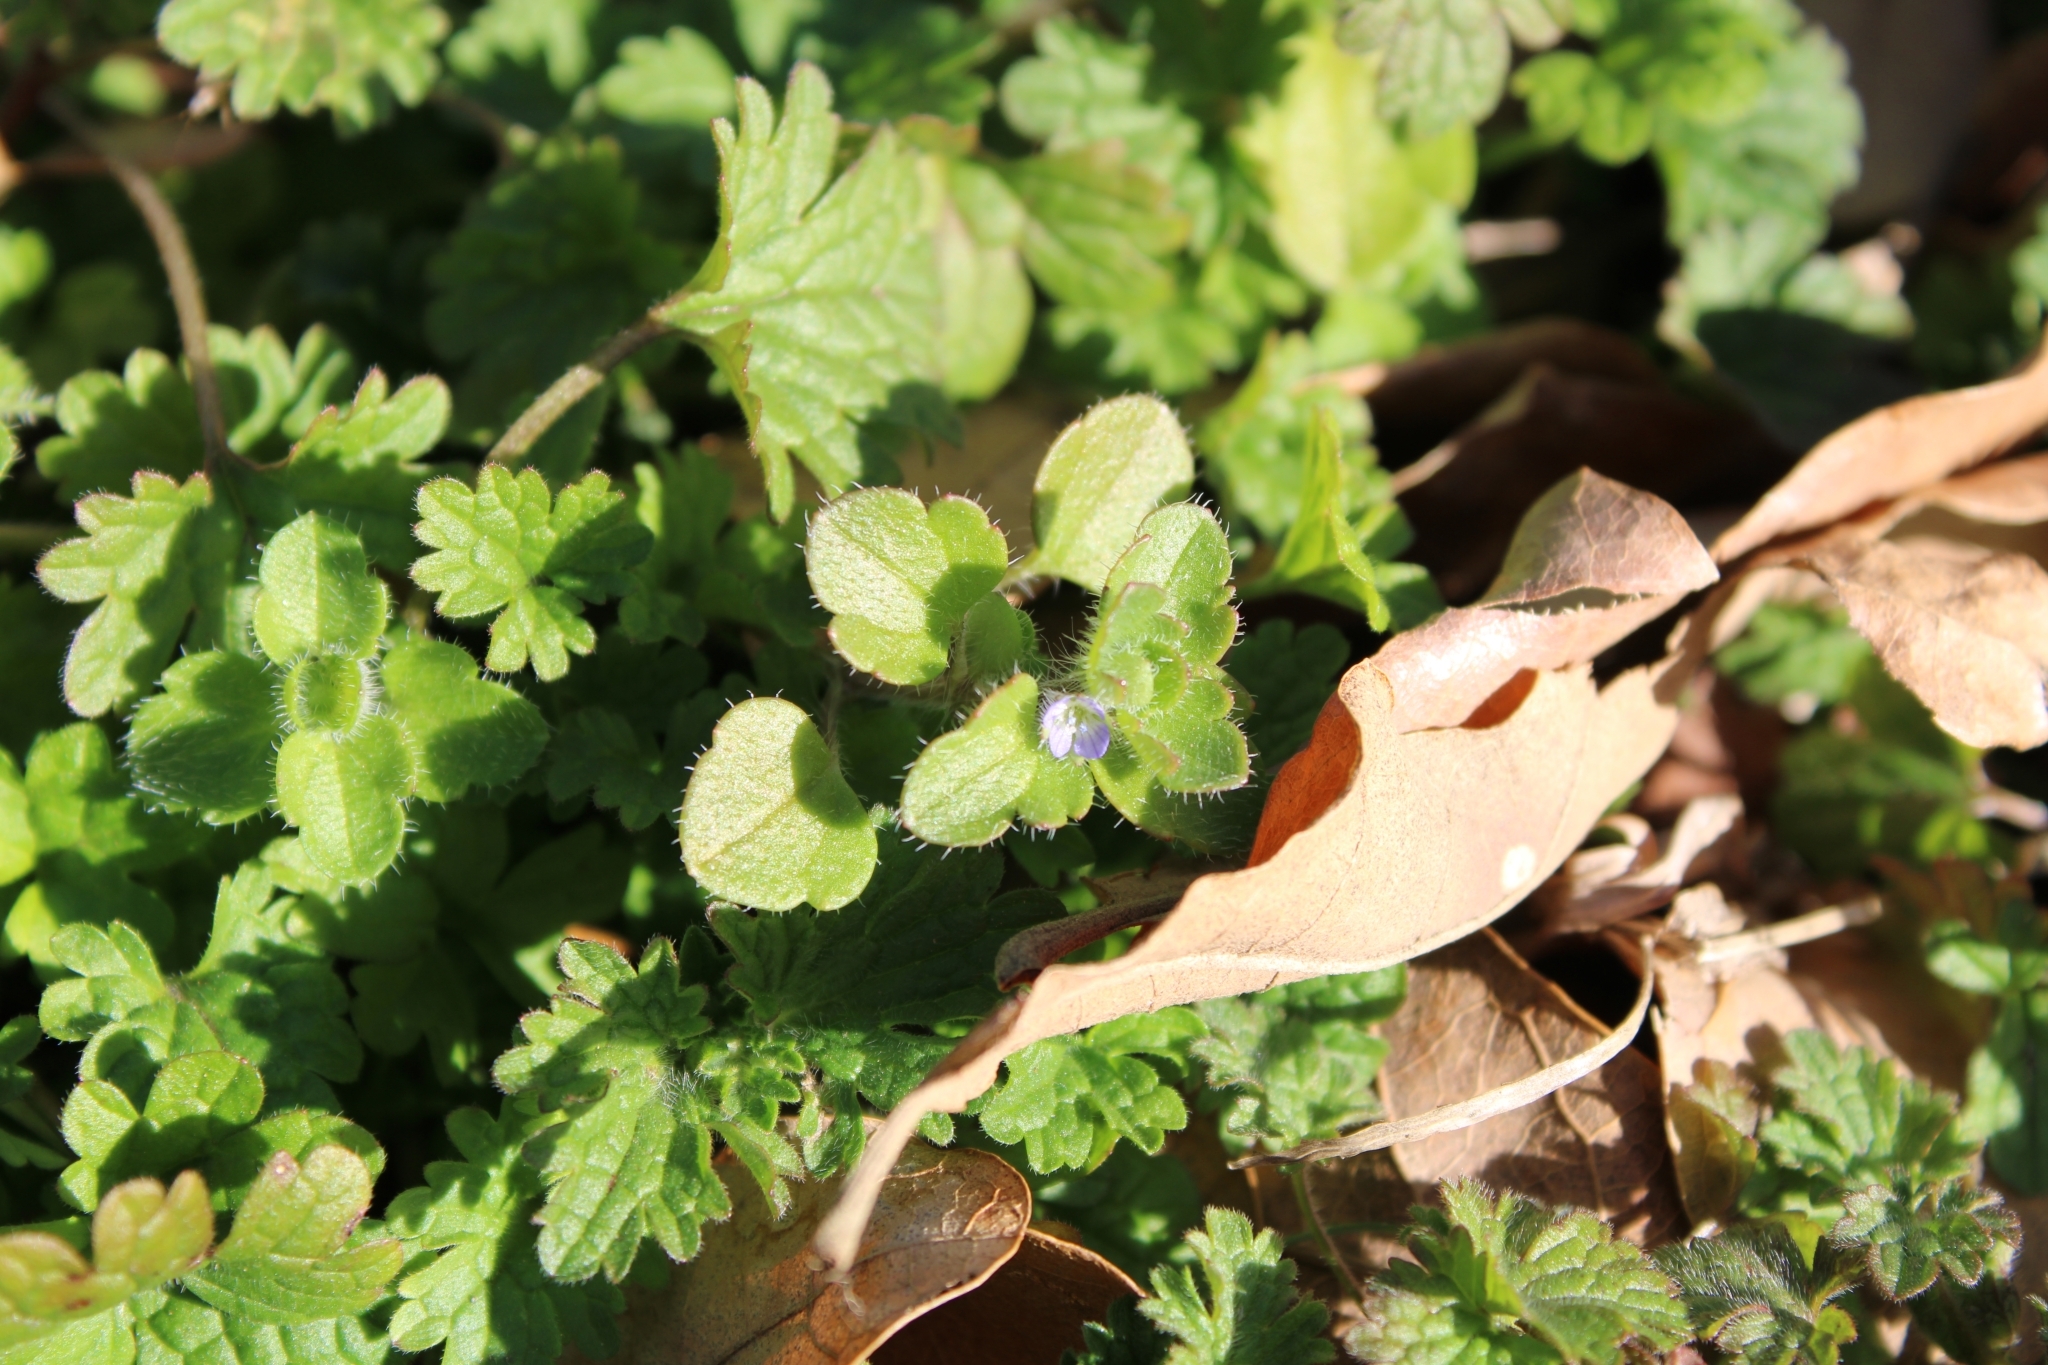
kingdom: Plantae
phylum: Tracheophyta
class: Magnoliopsida
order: Lamiales
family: Plantaginaceae
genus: Veronica
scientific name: Veronica hederifolia
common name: Ivy-leaved speedwell
